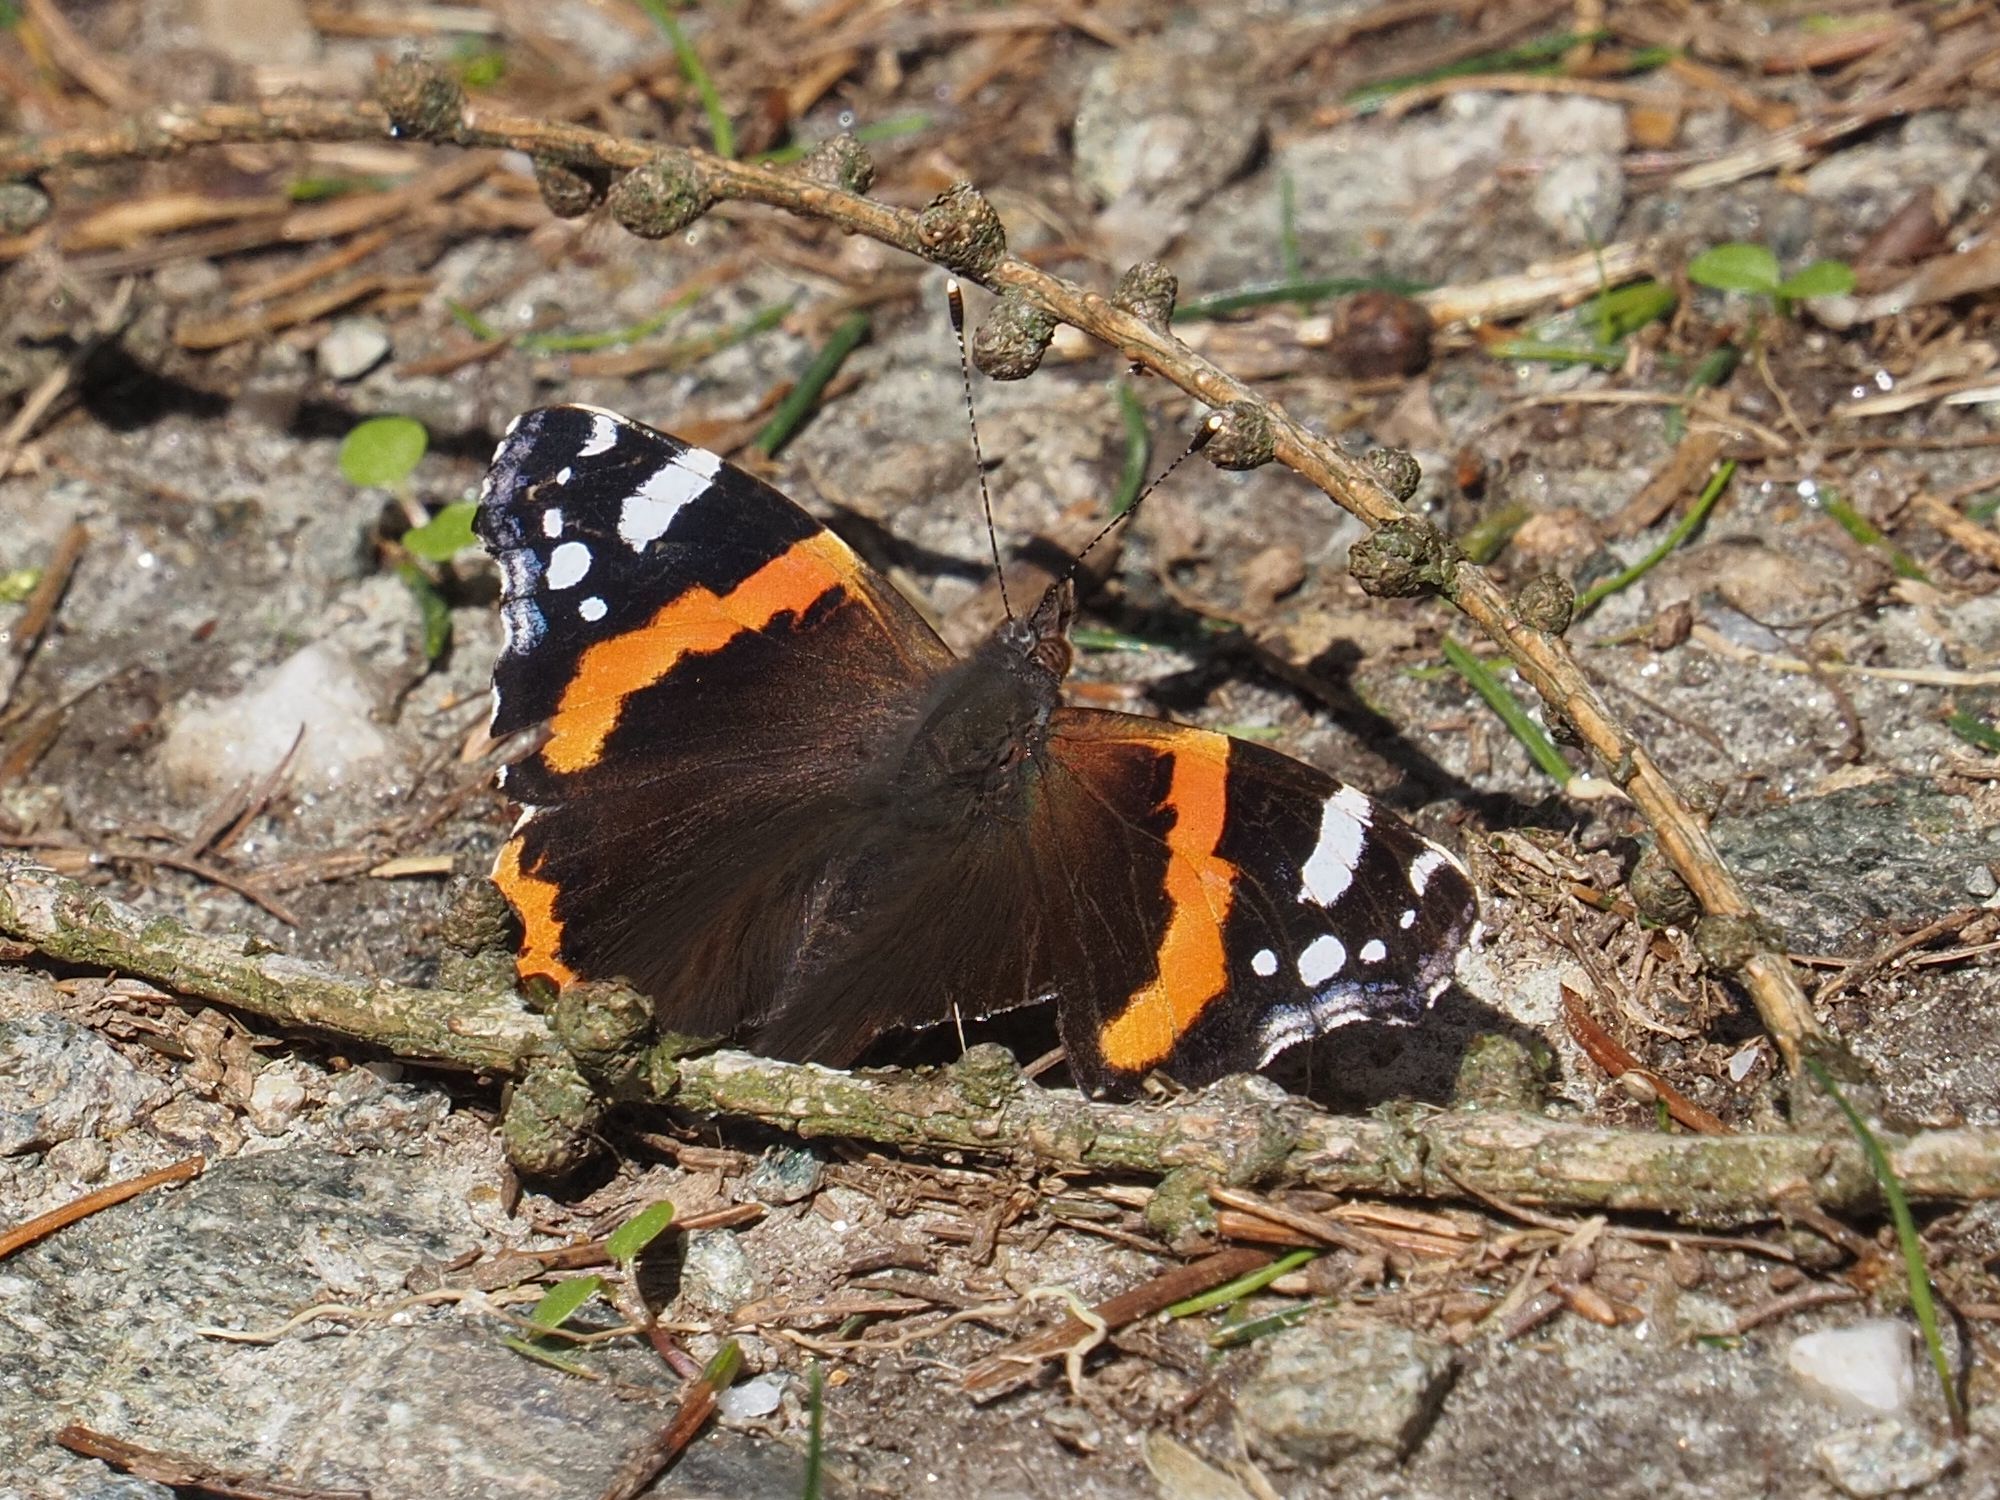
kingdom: Animalia
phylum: Arthropoda
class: Insecta
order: Lepidoptera
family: Nymphalidae
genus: Vanessa
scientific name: Vanessa atalanta
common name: Red admiral
